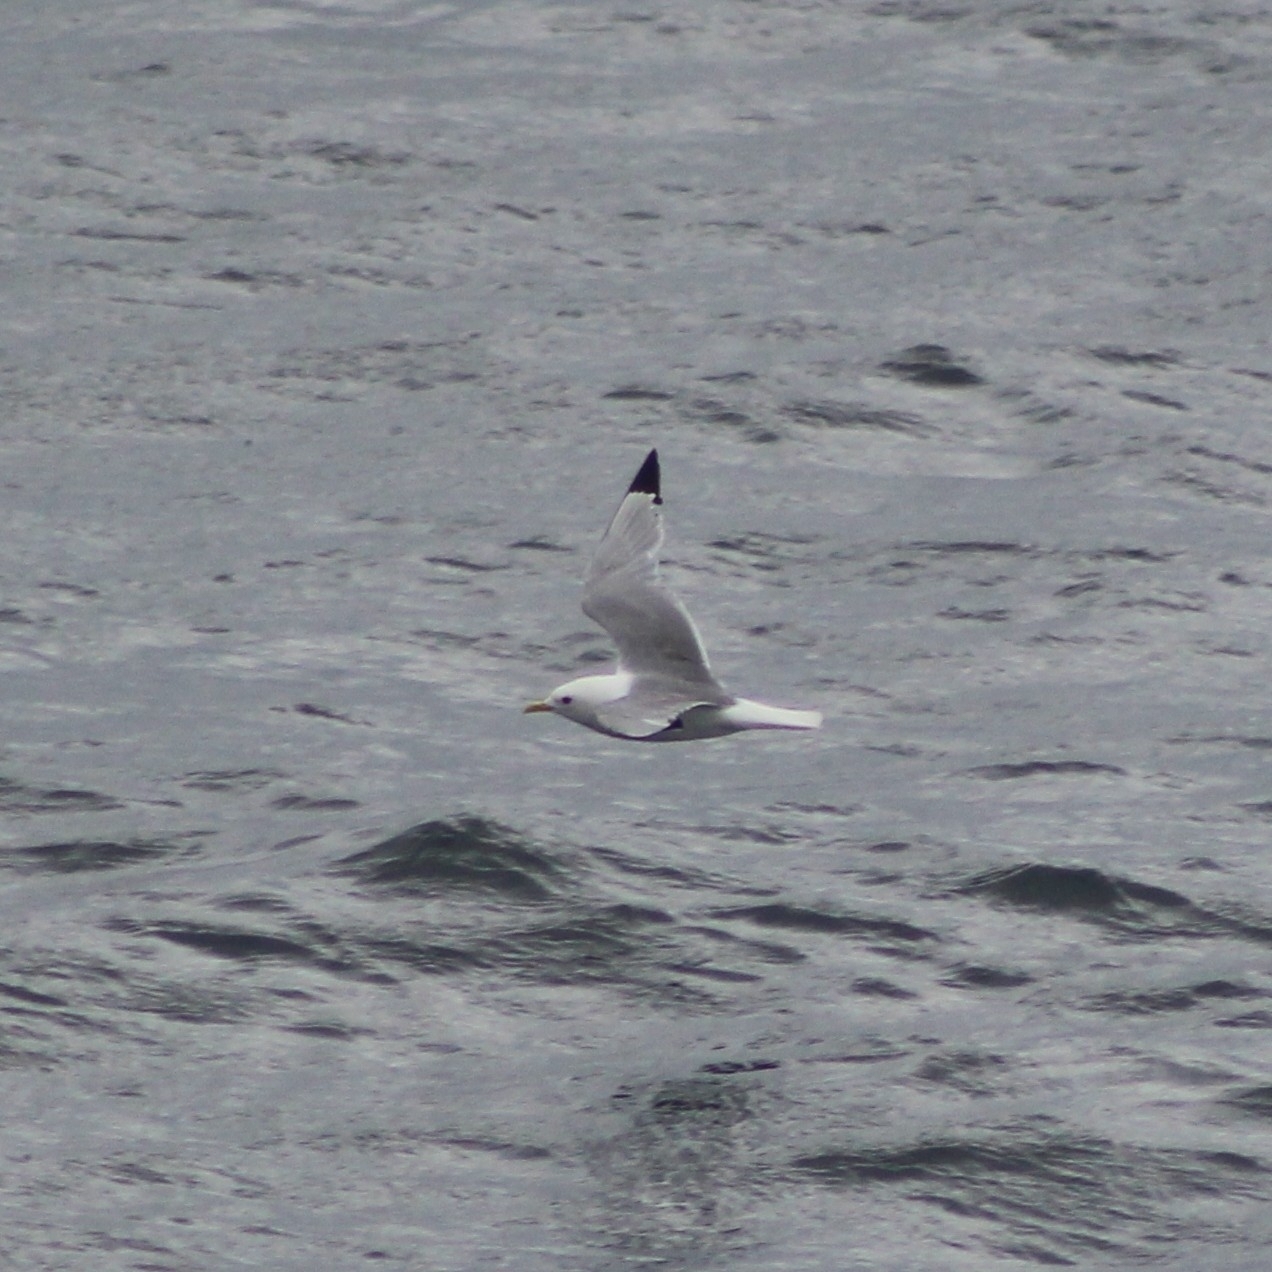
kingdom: Animalia
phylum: Chordata
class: Aves
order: Charadriiformes
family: Laridae
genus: Rissa
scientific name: Rissa tridactyla
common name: Black-legged kittiwake
